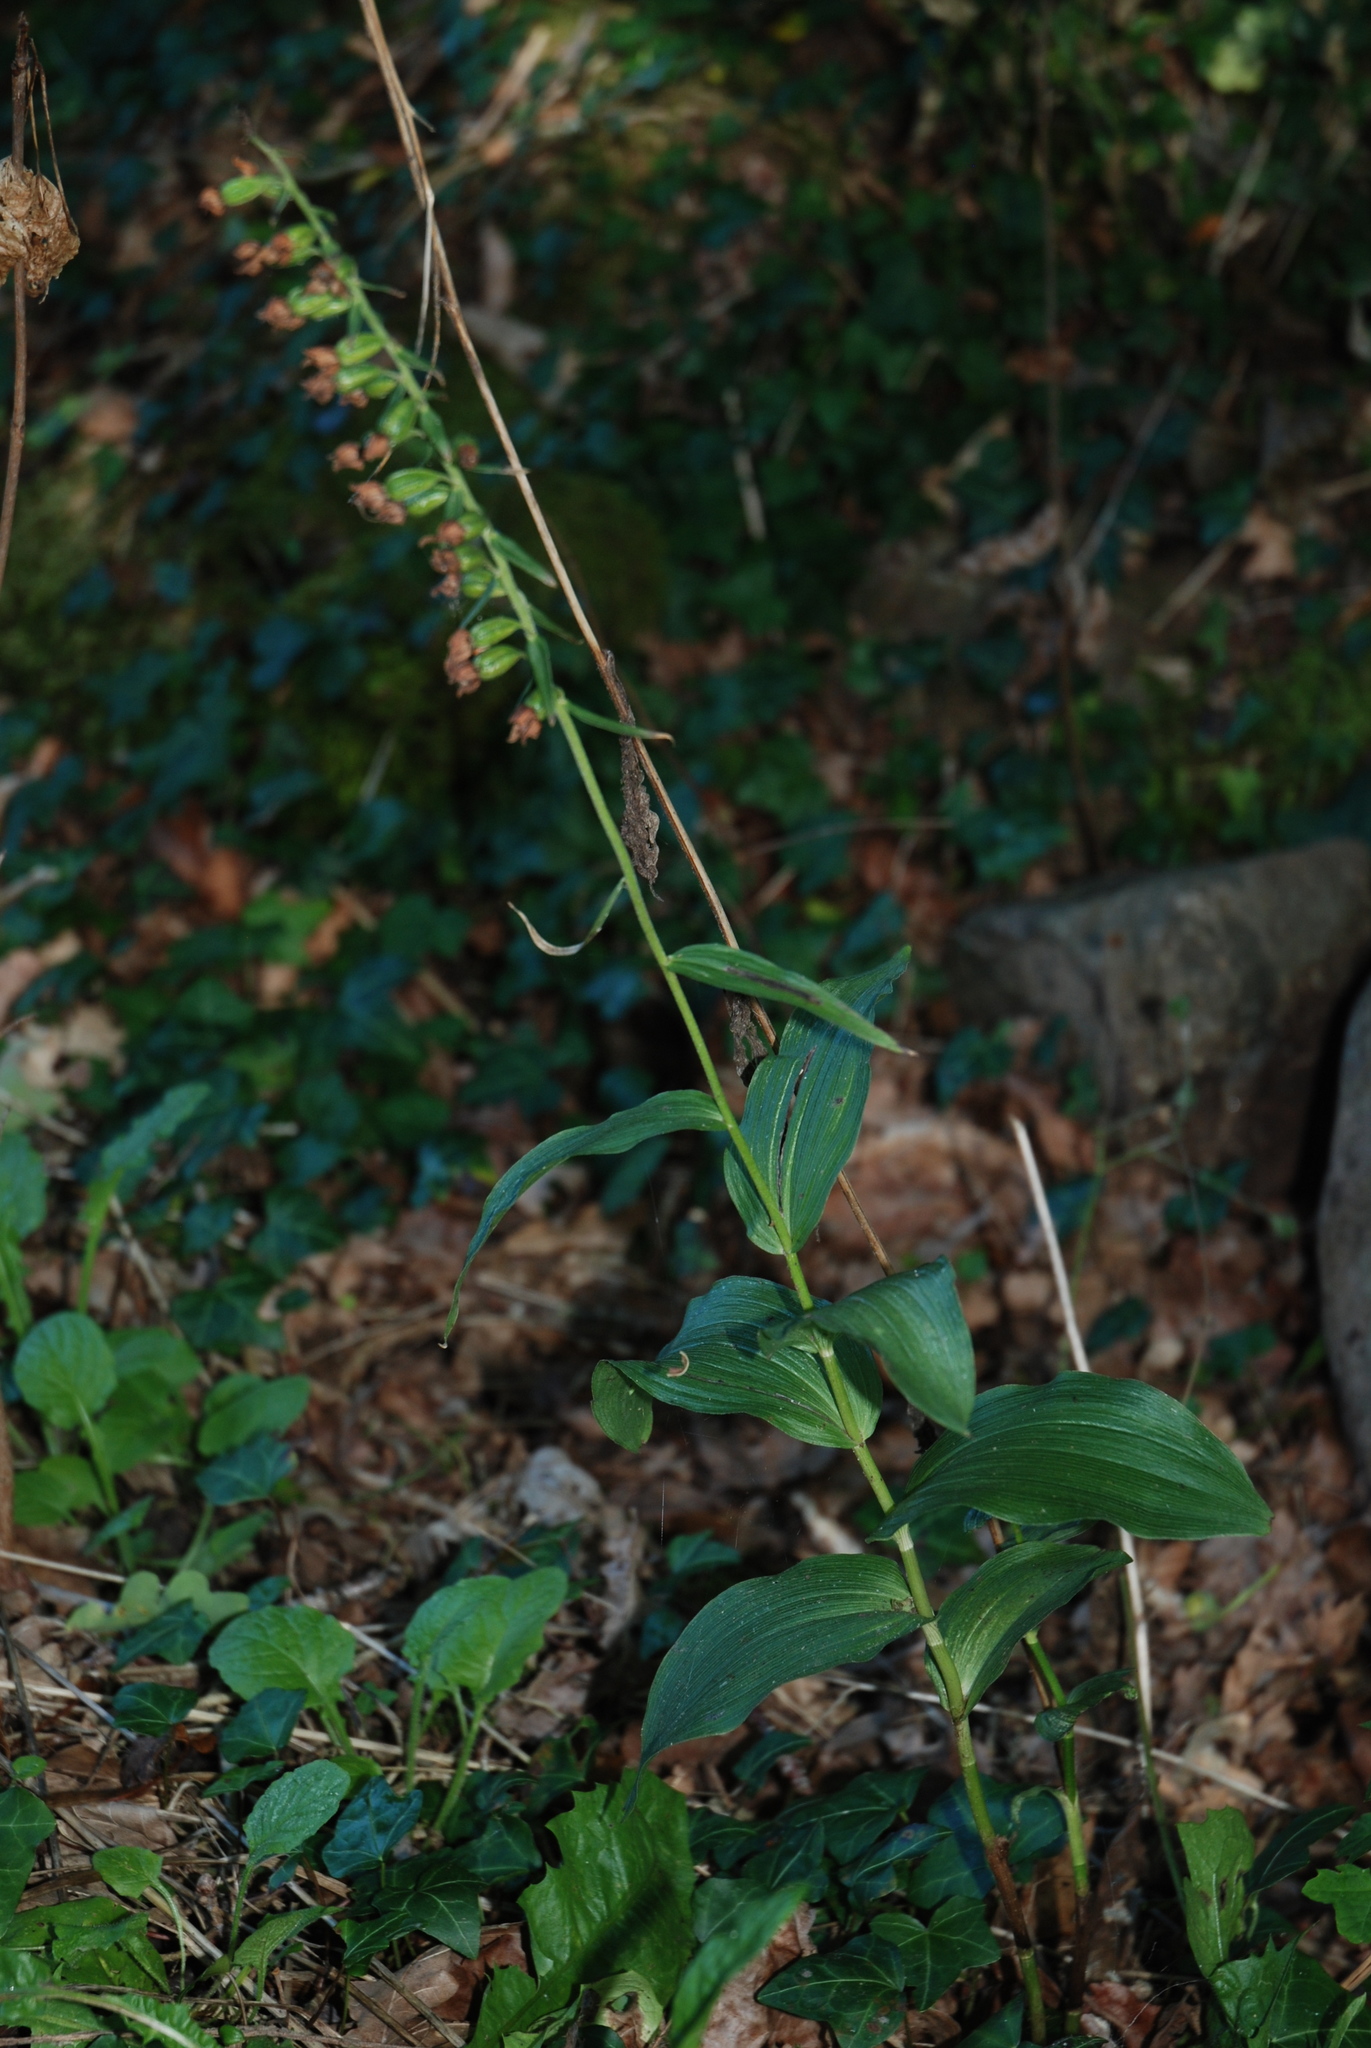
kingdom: Plantae
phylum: Tracheophyta
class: Liliopsida
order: Asparagales
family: Orchidaceae
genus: Epipactis
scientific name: Epipactis helleborine
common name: Broad-leaved helleborine
